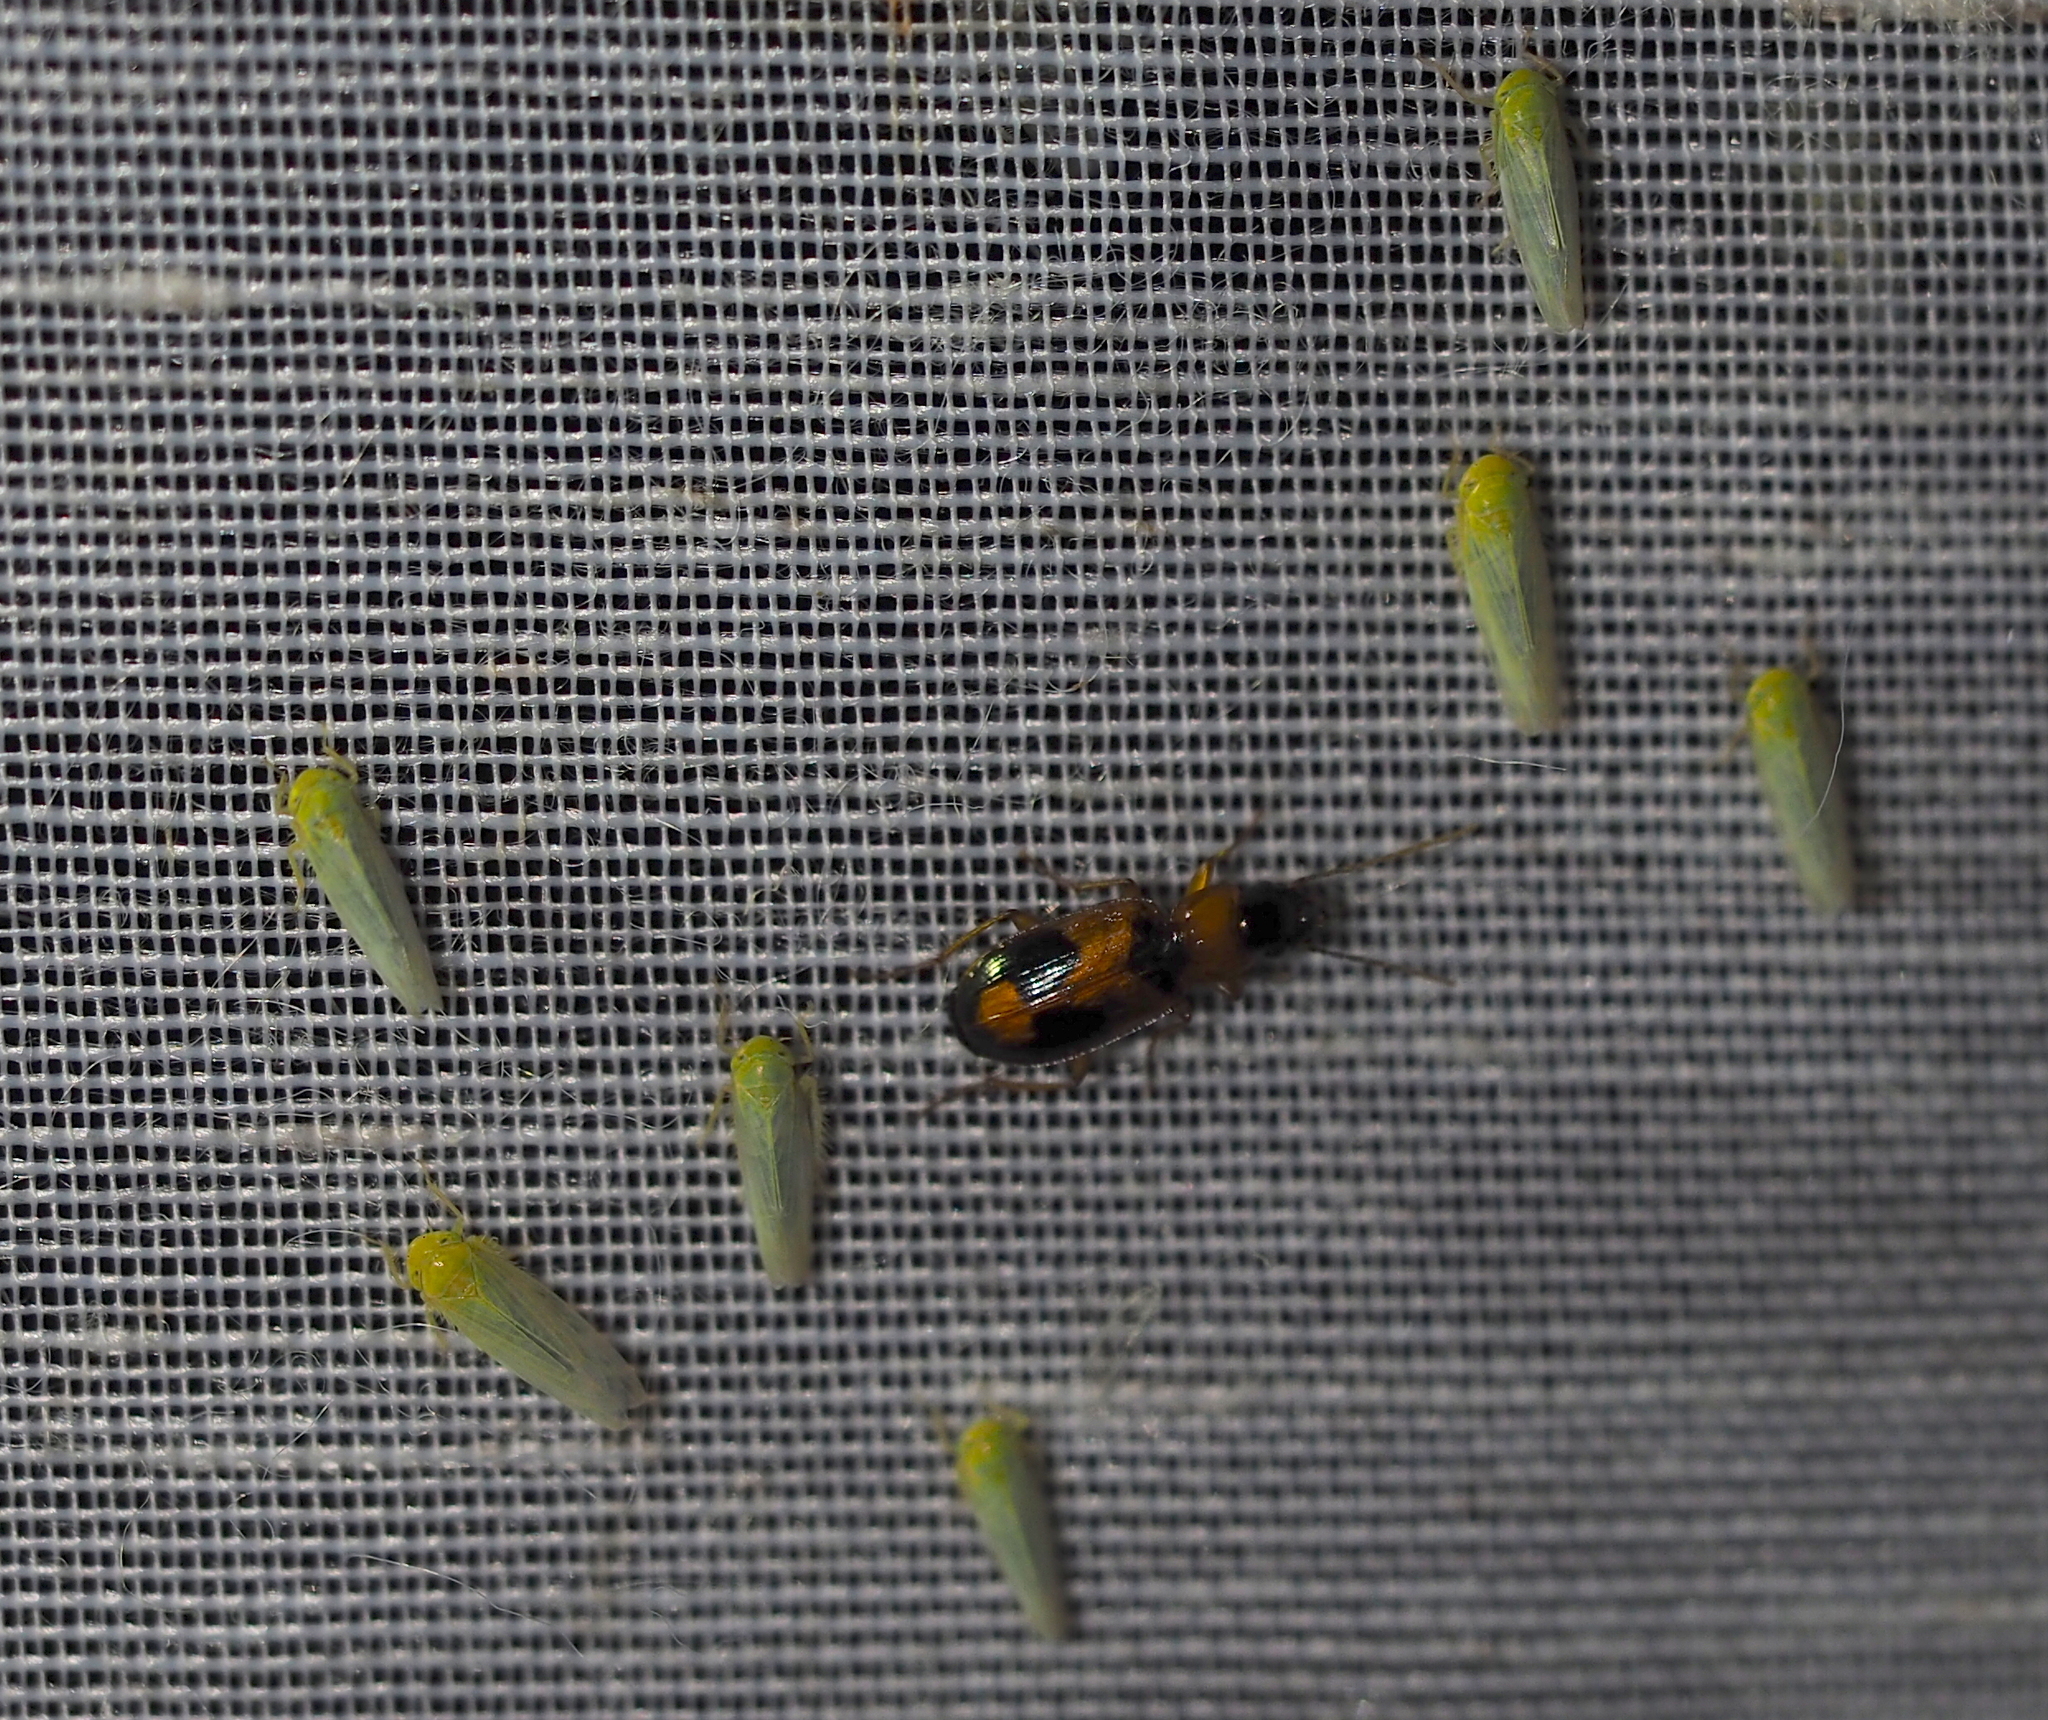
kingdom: Animalia
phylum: Arthropoda
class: Insecta
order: Coleoptera
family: Carabidae
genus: Badister
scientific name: Badister
